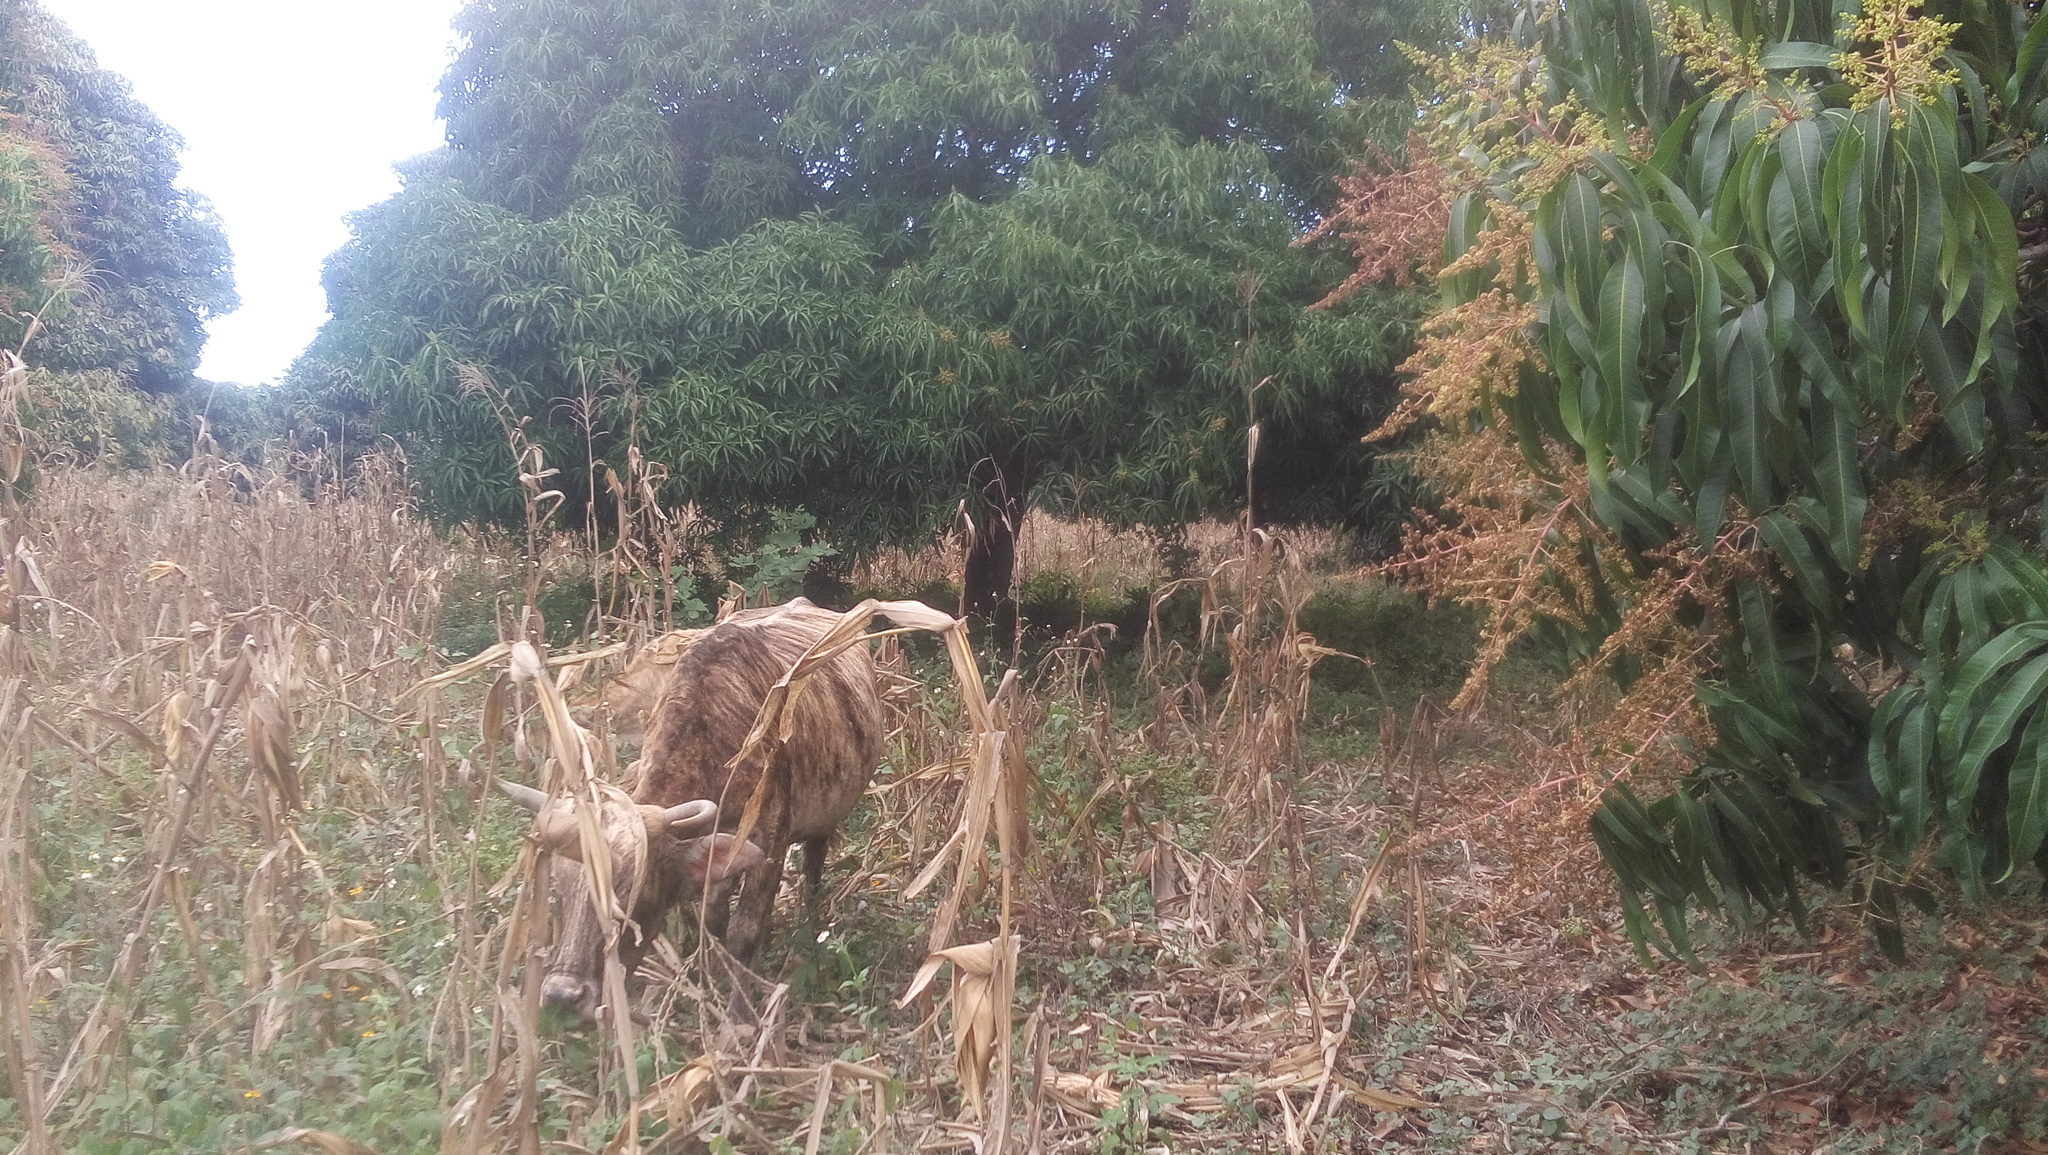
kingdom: Animalia
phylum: Chordata
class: Mammalia
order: Artiodactyla
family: Bovidae
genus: Bos
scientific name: Bos taurus
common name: Domesticated cattle
